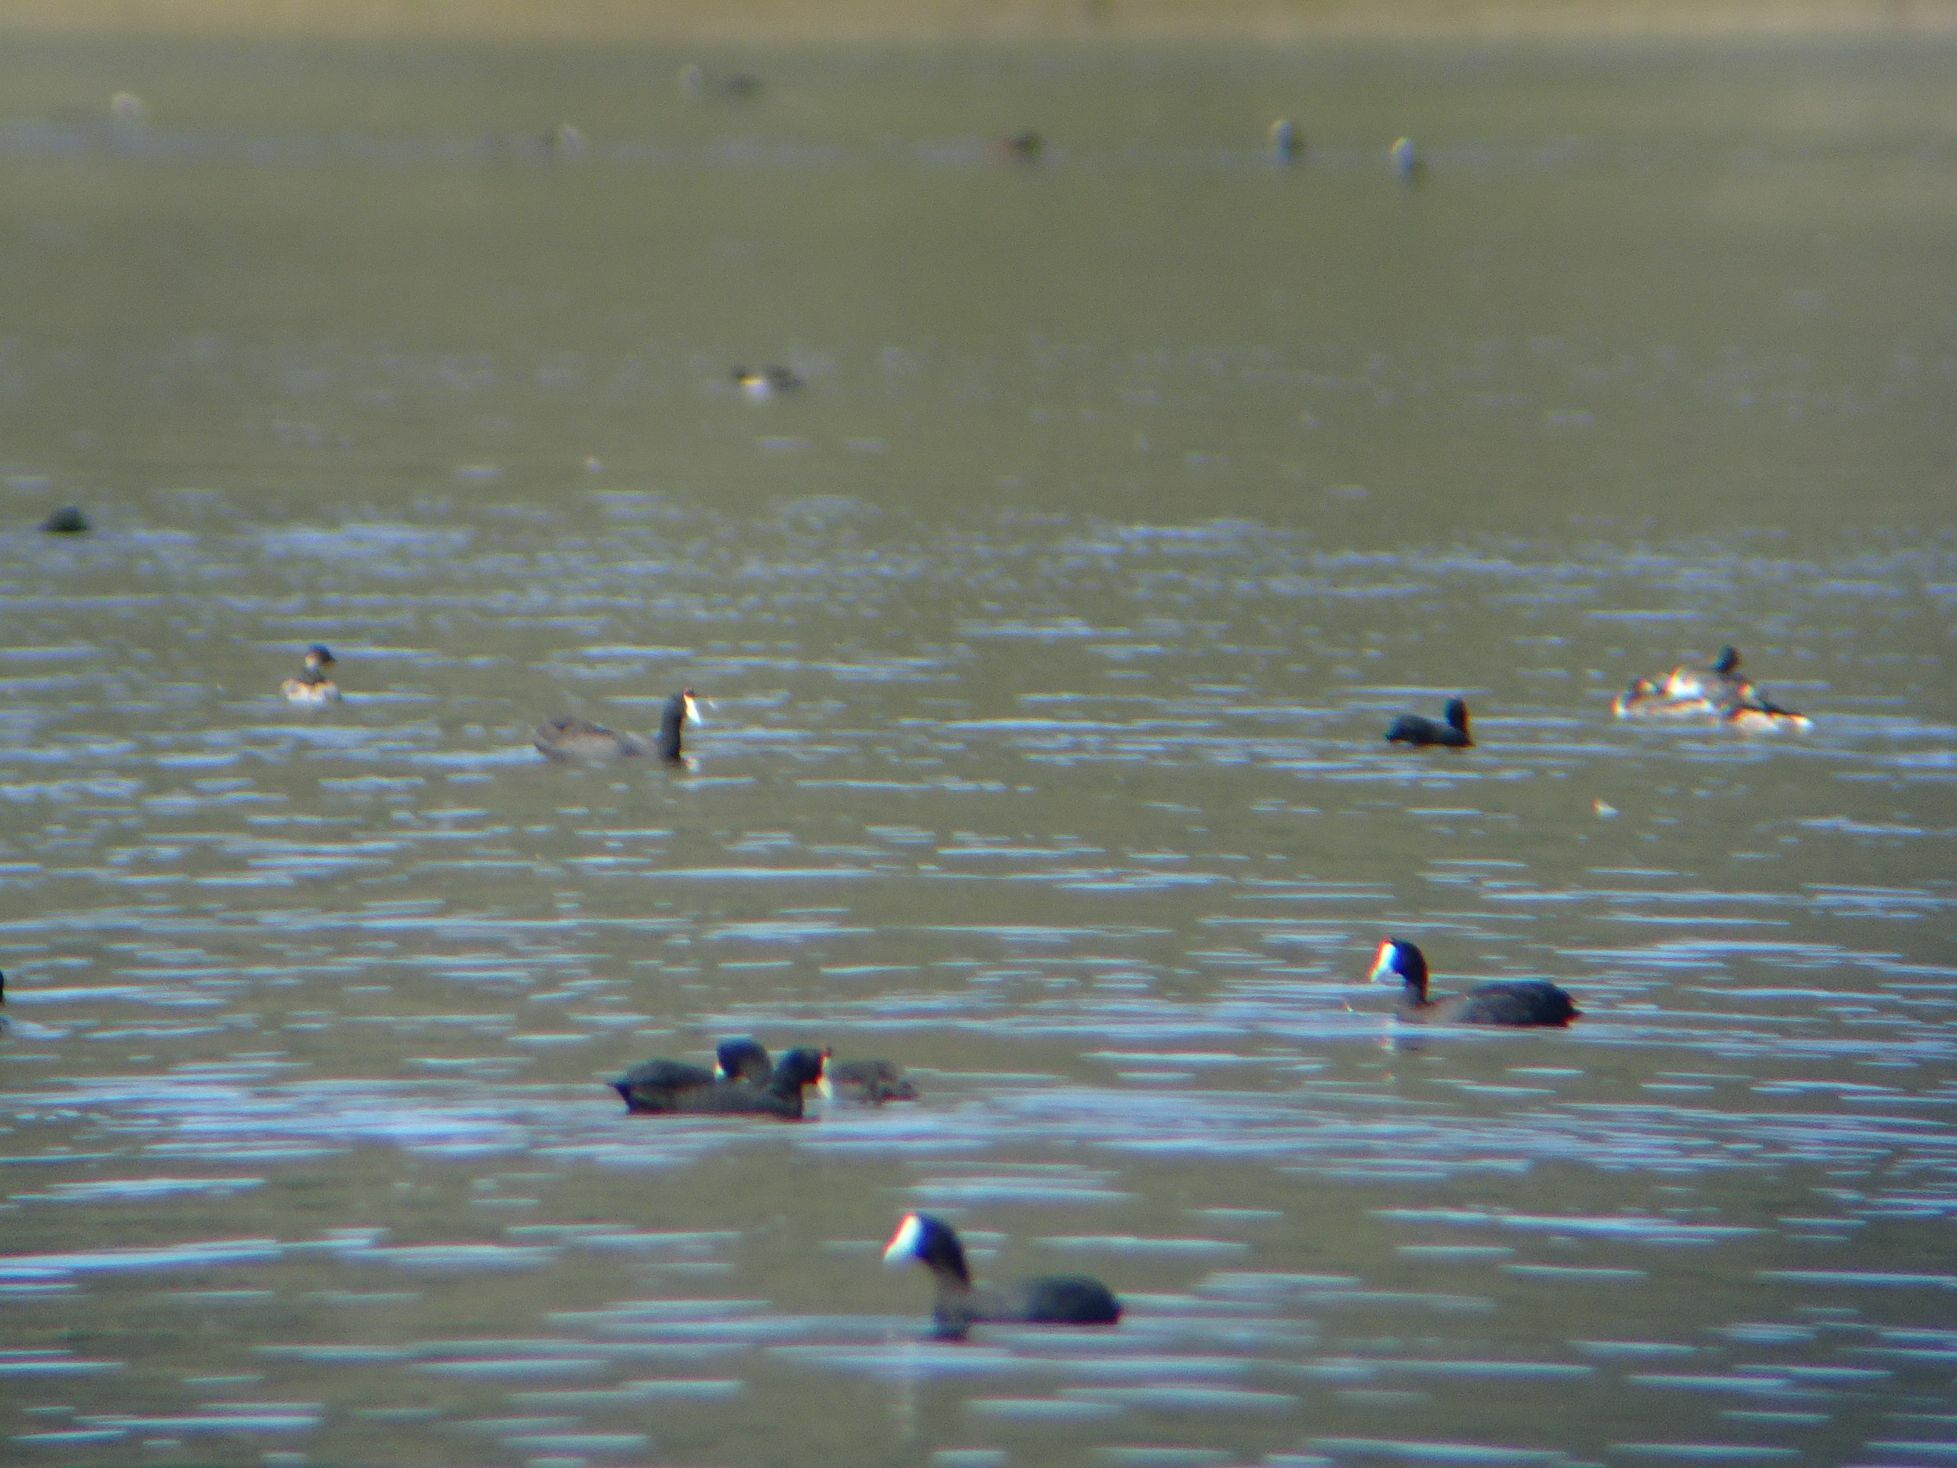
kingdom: Animalia
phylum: Chordata
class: Aves
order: Gruiformes
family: Rallidae
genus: Fulica
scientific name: Fulica cristata
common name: Red-knobbed coot
